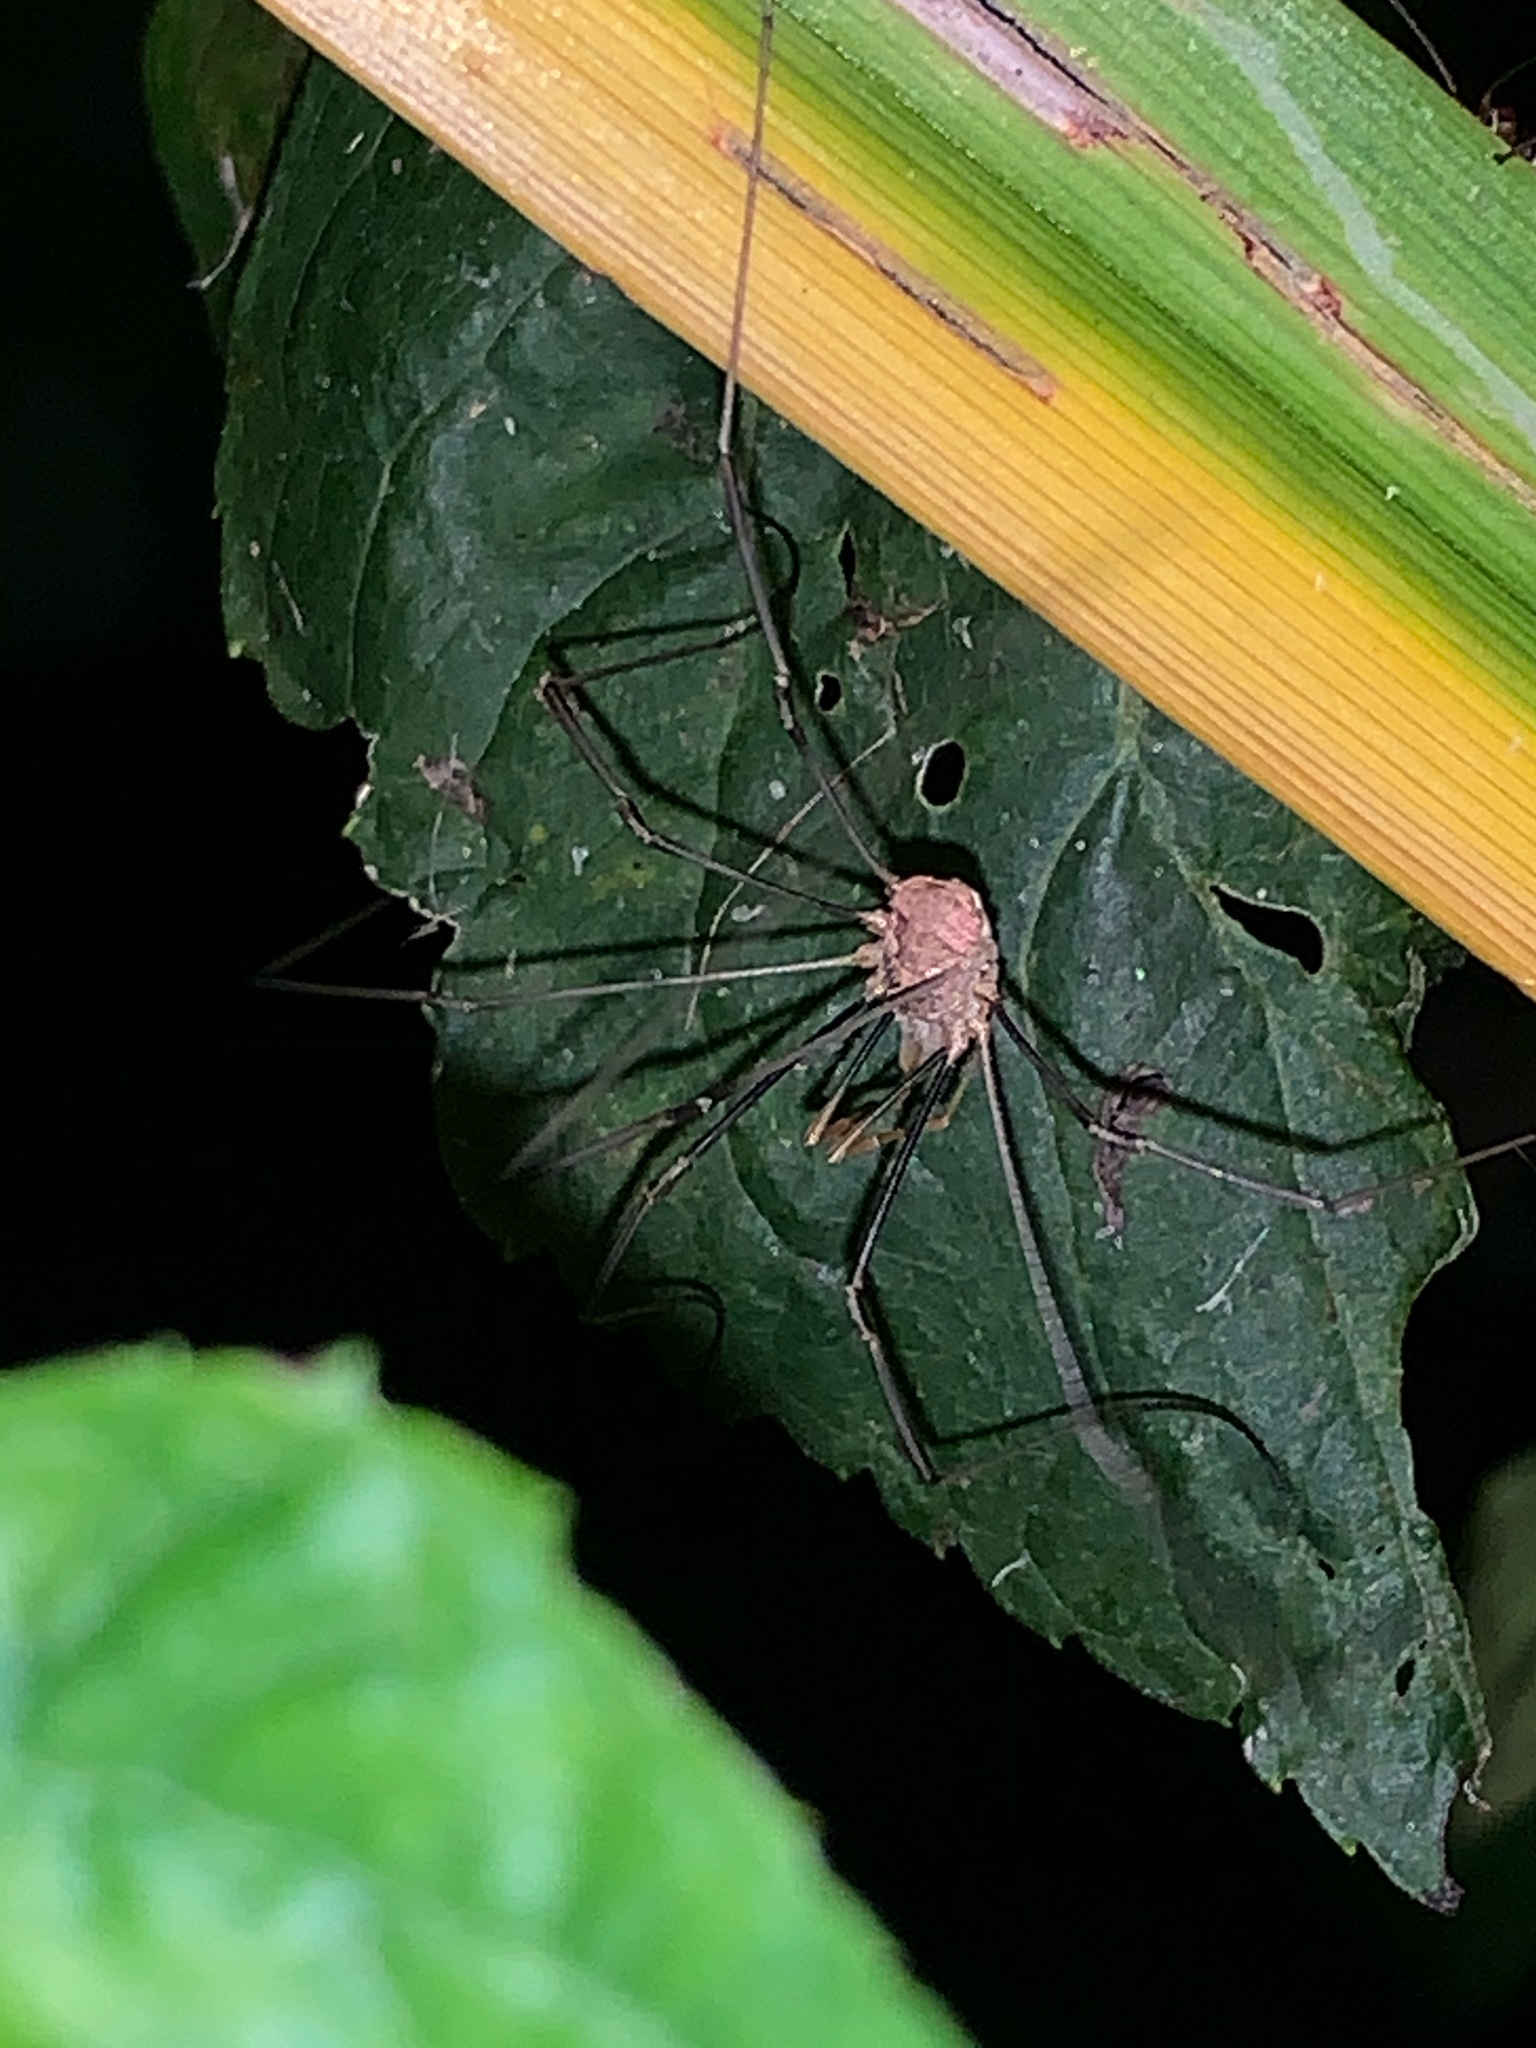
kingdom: Animalia
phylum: Arthropoda
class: Arachnida
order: Opiliones
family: Phalangiidae
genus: Phalangium
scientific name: Phalangium opilio
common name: Daddy longleg
